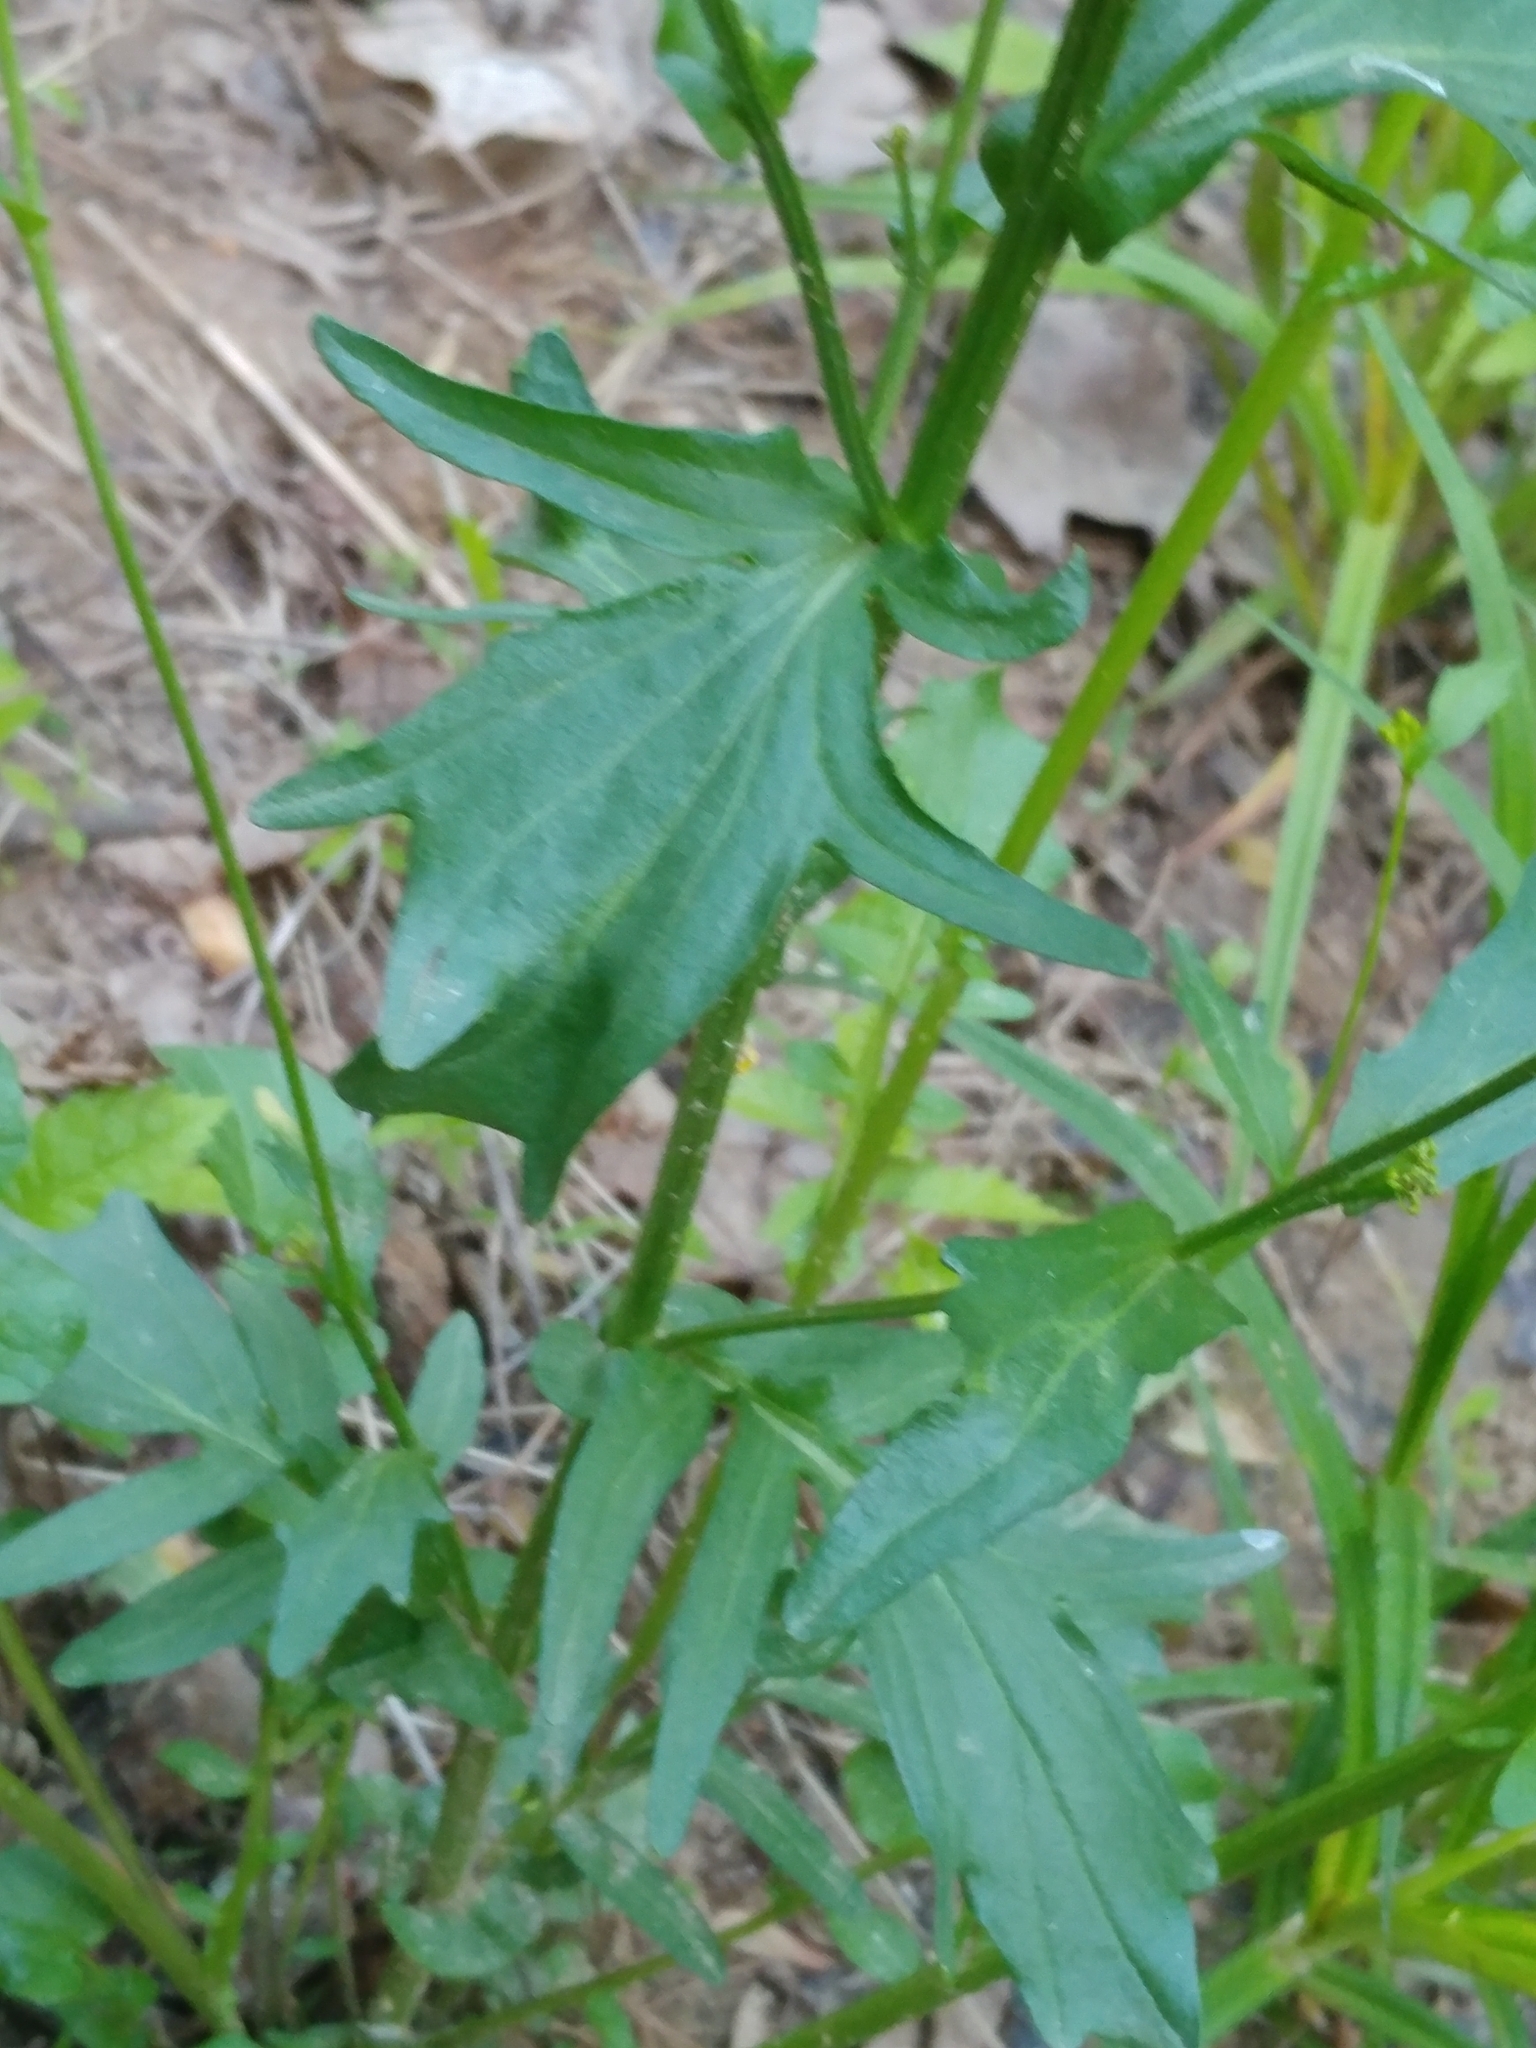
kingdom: Plantae
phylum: Tracheophyta
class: Magnoliopsida
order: Brassicales
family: Brassicaceae
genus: Barbarea
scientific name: Barbarea vulgaris
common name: Cressy-greens
